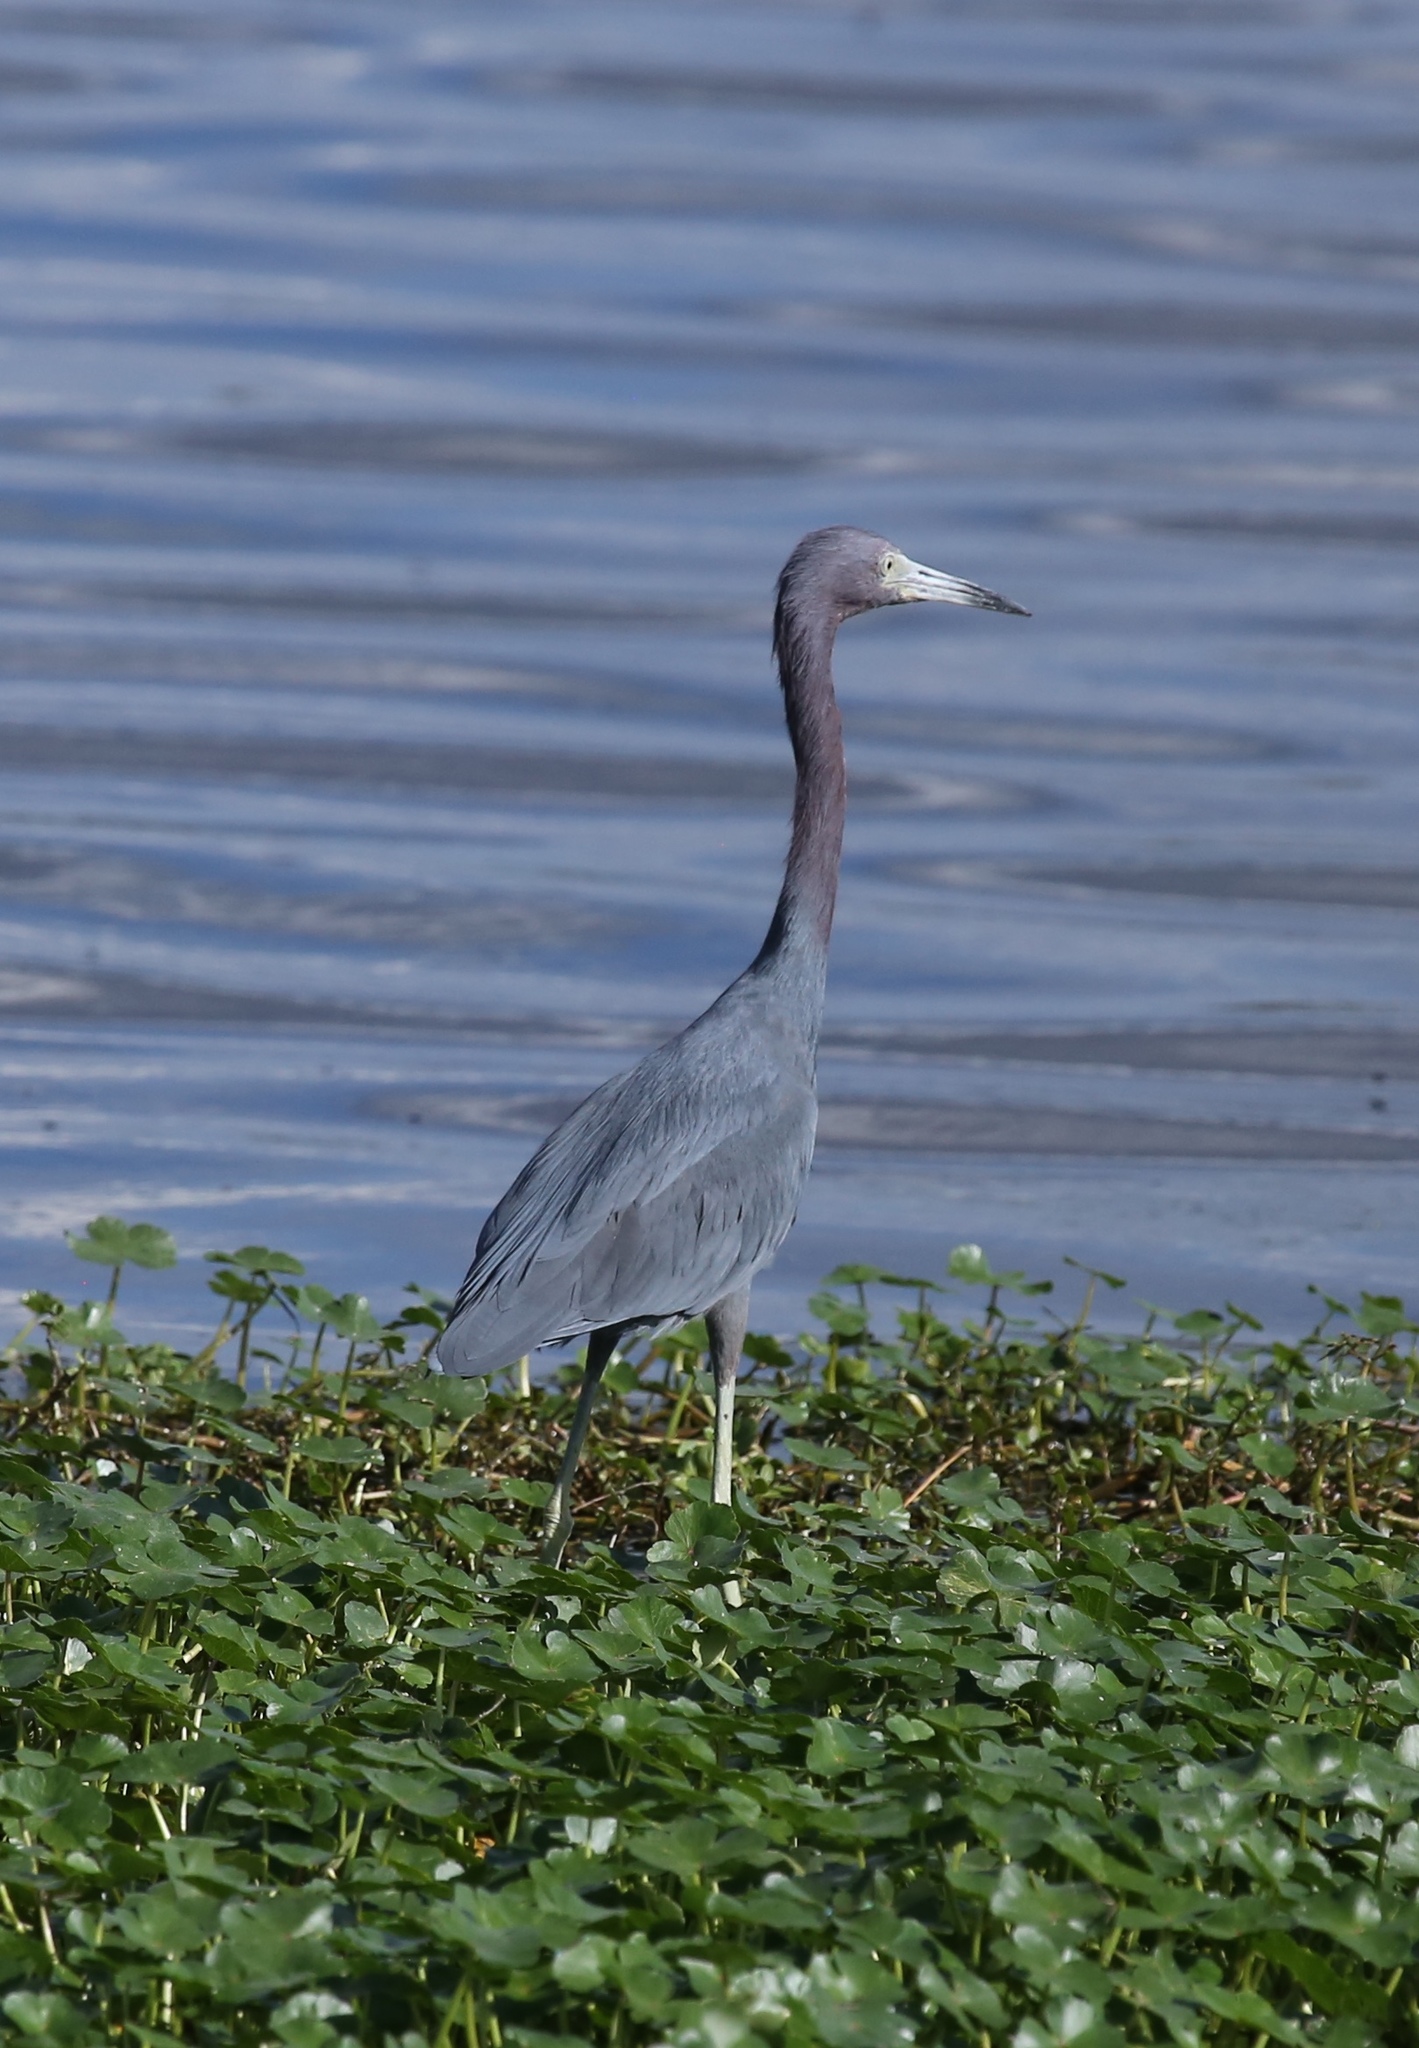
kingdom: Animalia
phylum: Chordata
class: Aves
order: Pelecaniformes
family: Ardeidae
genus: Egretta
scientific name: Egretta caerulea
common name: Little blue heron
